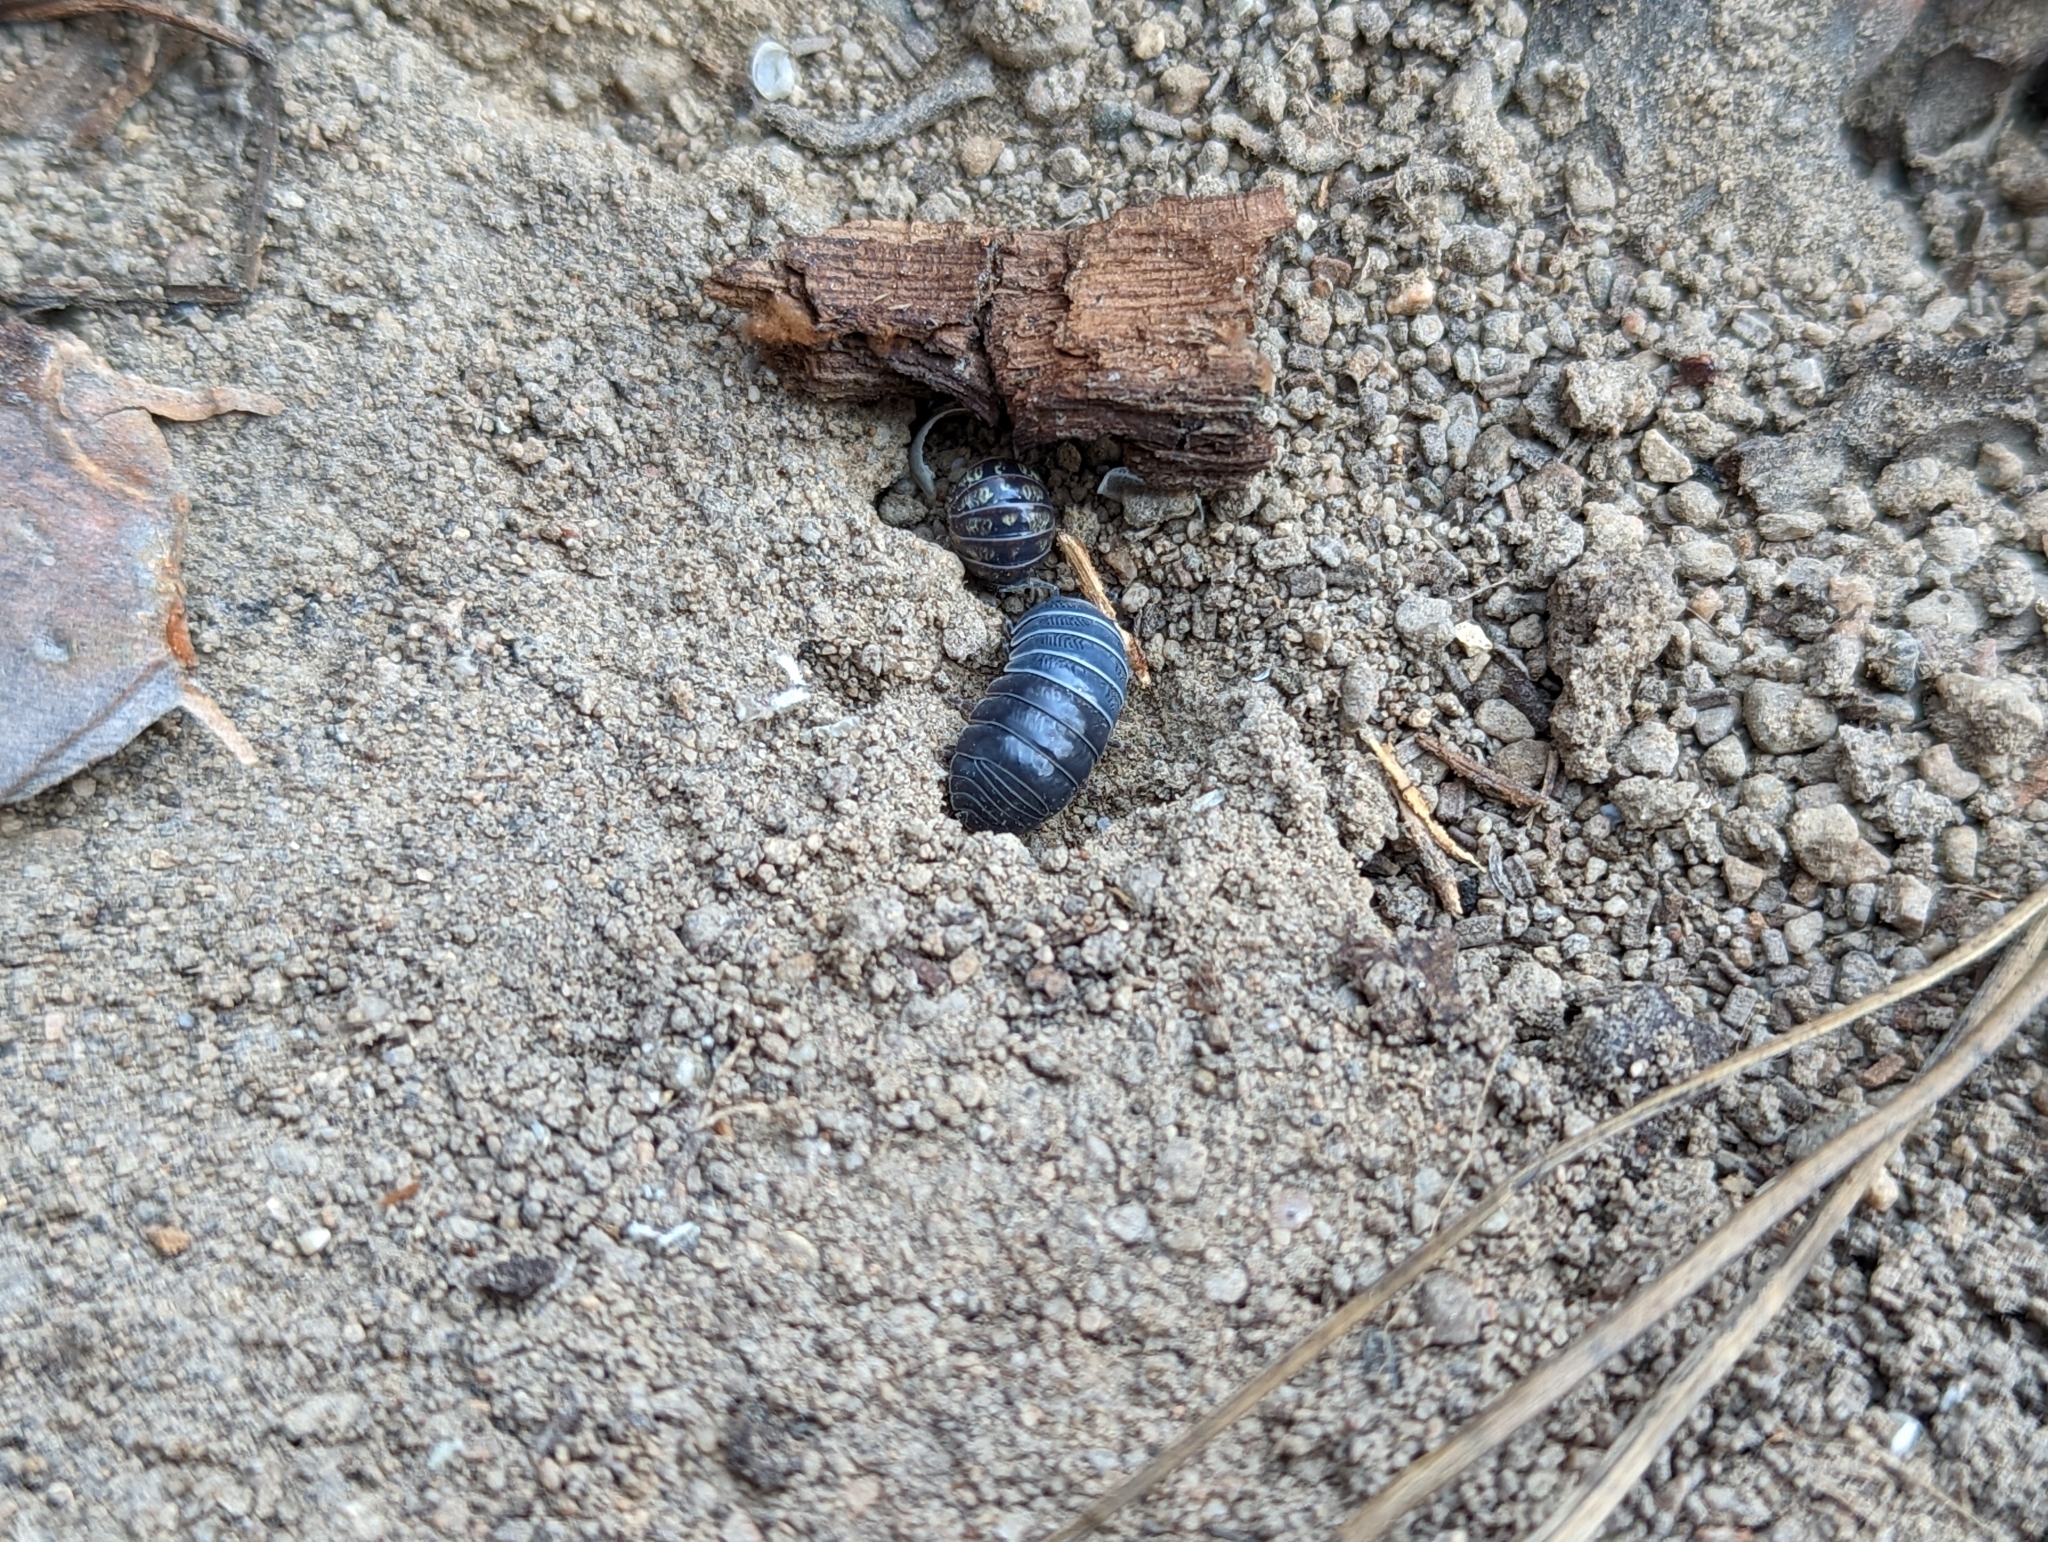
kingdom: Animalia
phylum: Arthropoda
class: Malacostraca
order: Isopoda
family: Armadillidiidae
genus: Armadillidium
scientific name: Armadillidium vulgare
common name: Common pill woodlouse
